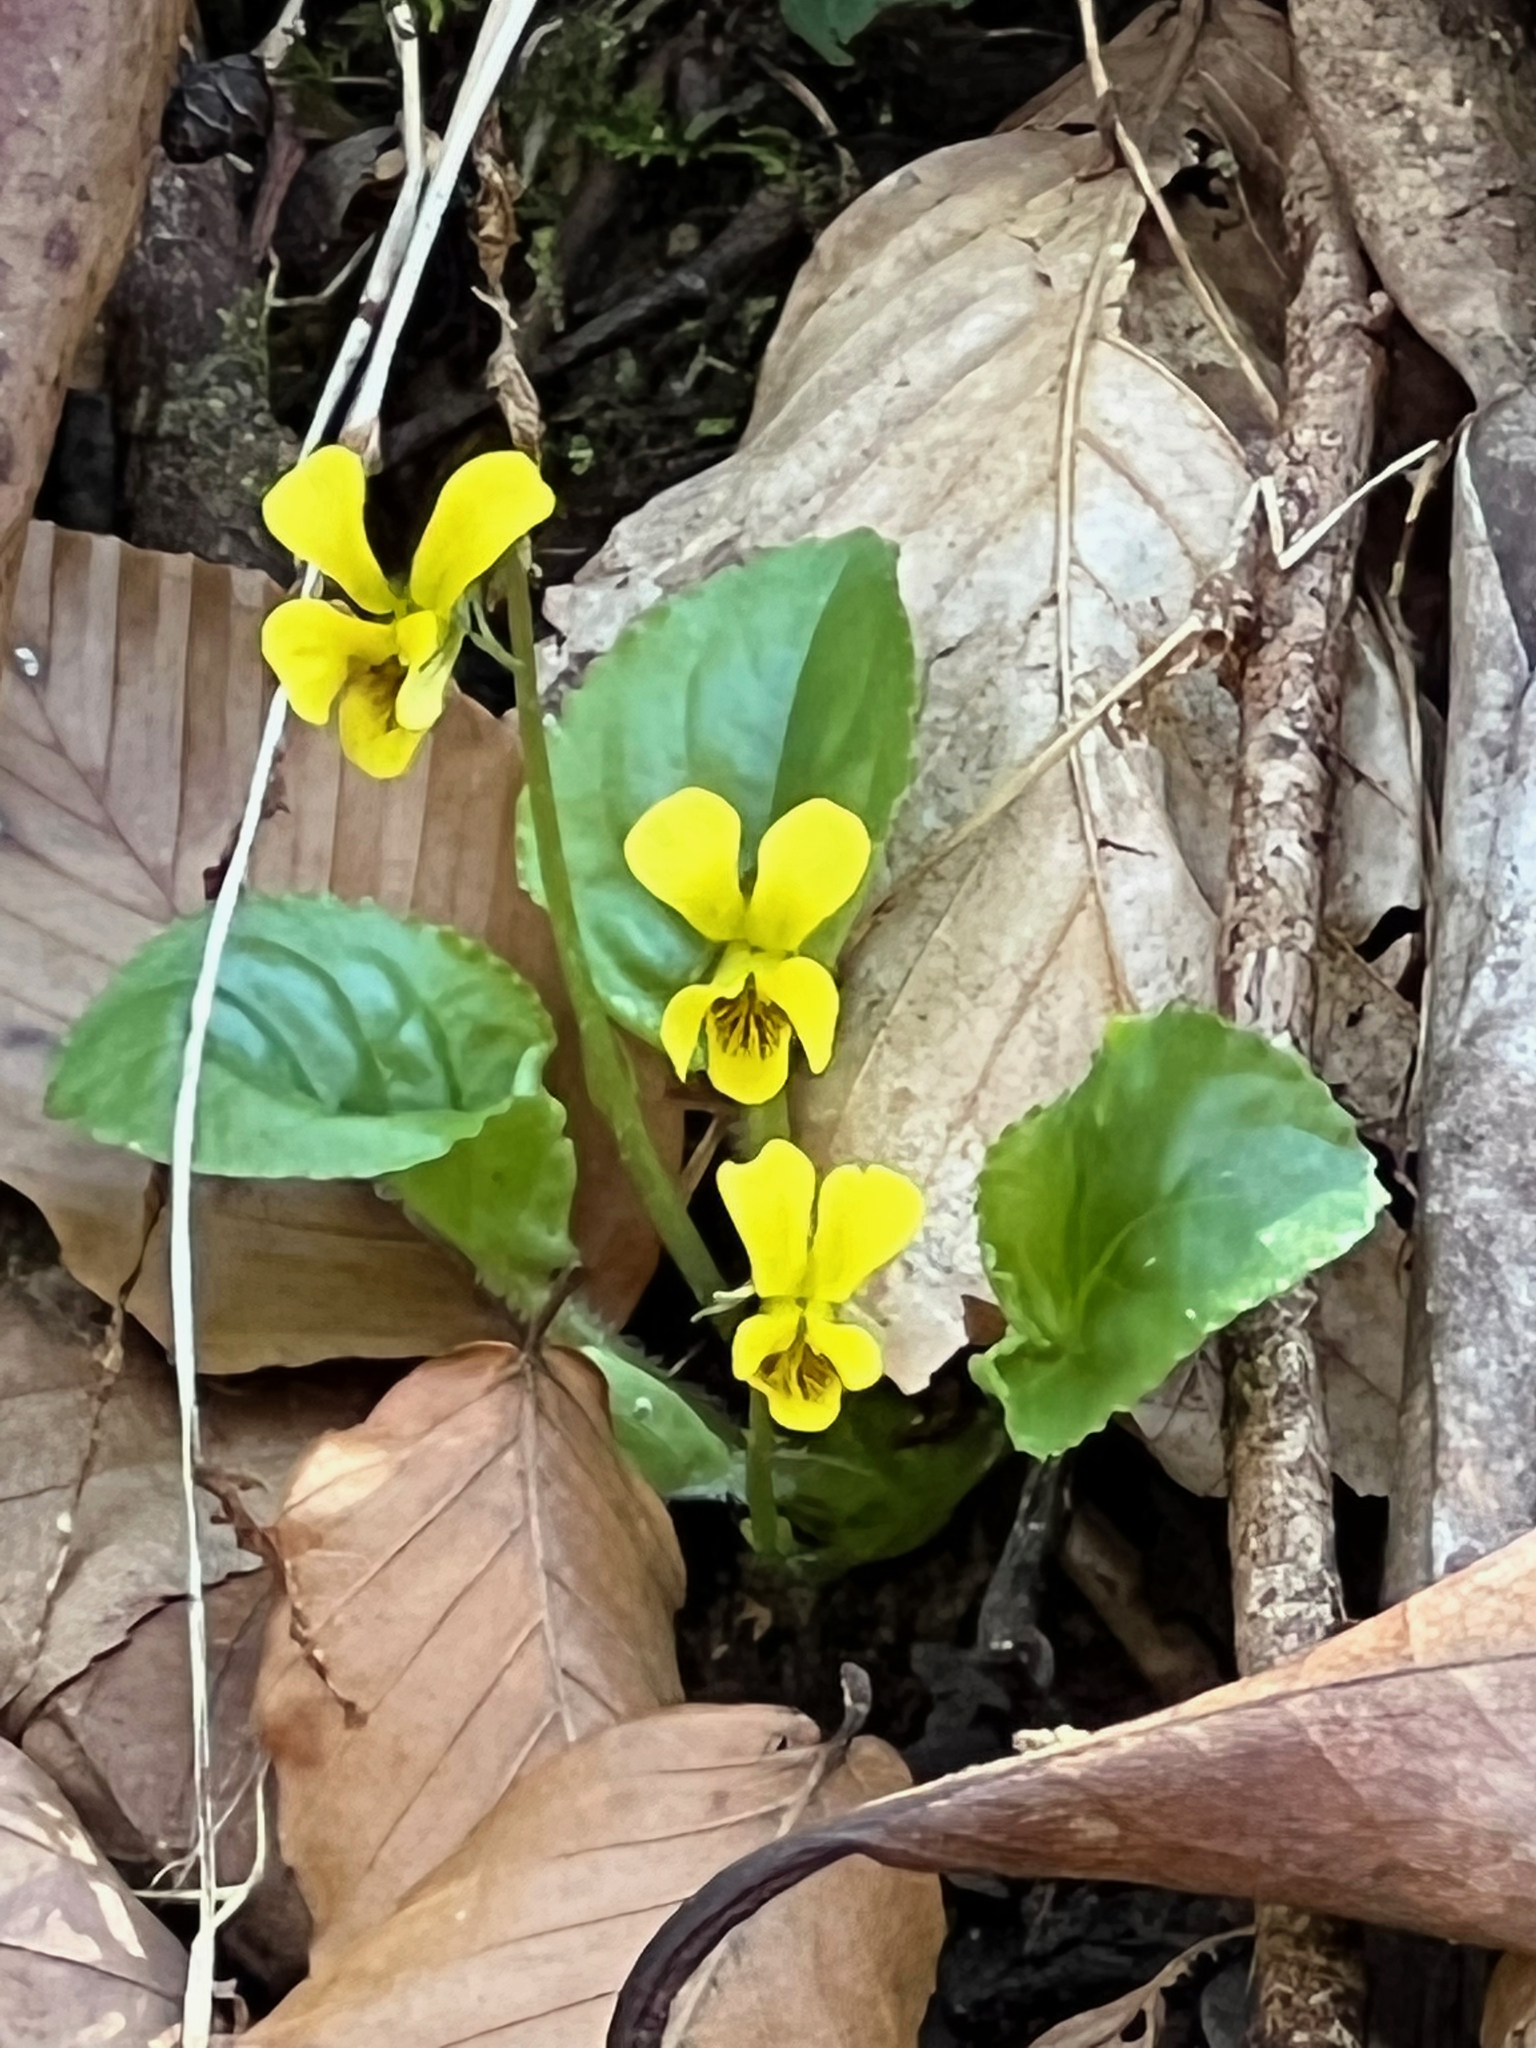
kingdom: Plantae
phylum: Tracheophyta
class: Magnoliopsida
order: Malpighiales
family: Violaceae
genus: Viola
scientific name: Viola rotundifolia
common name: Early yellow violet
